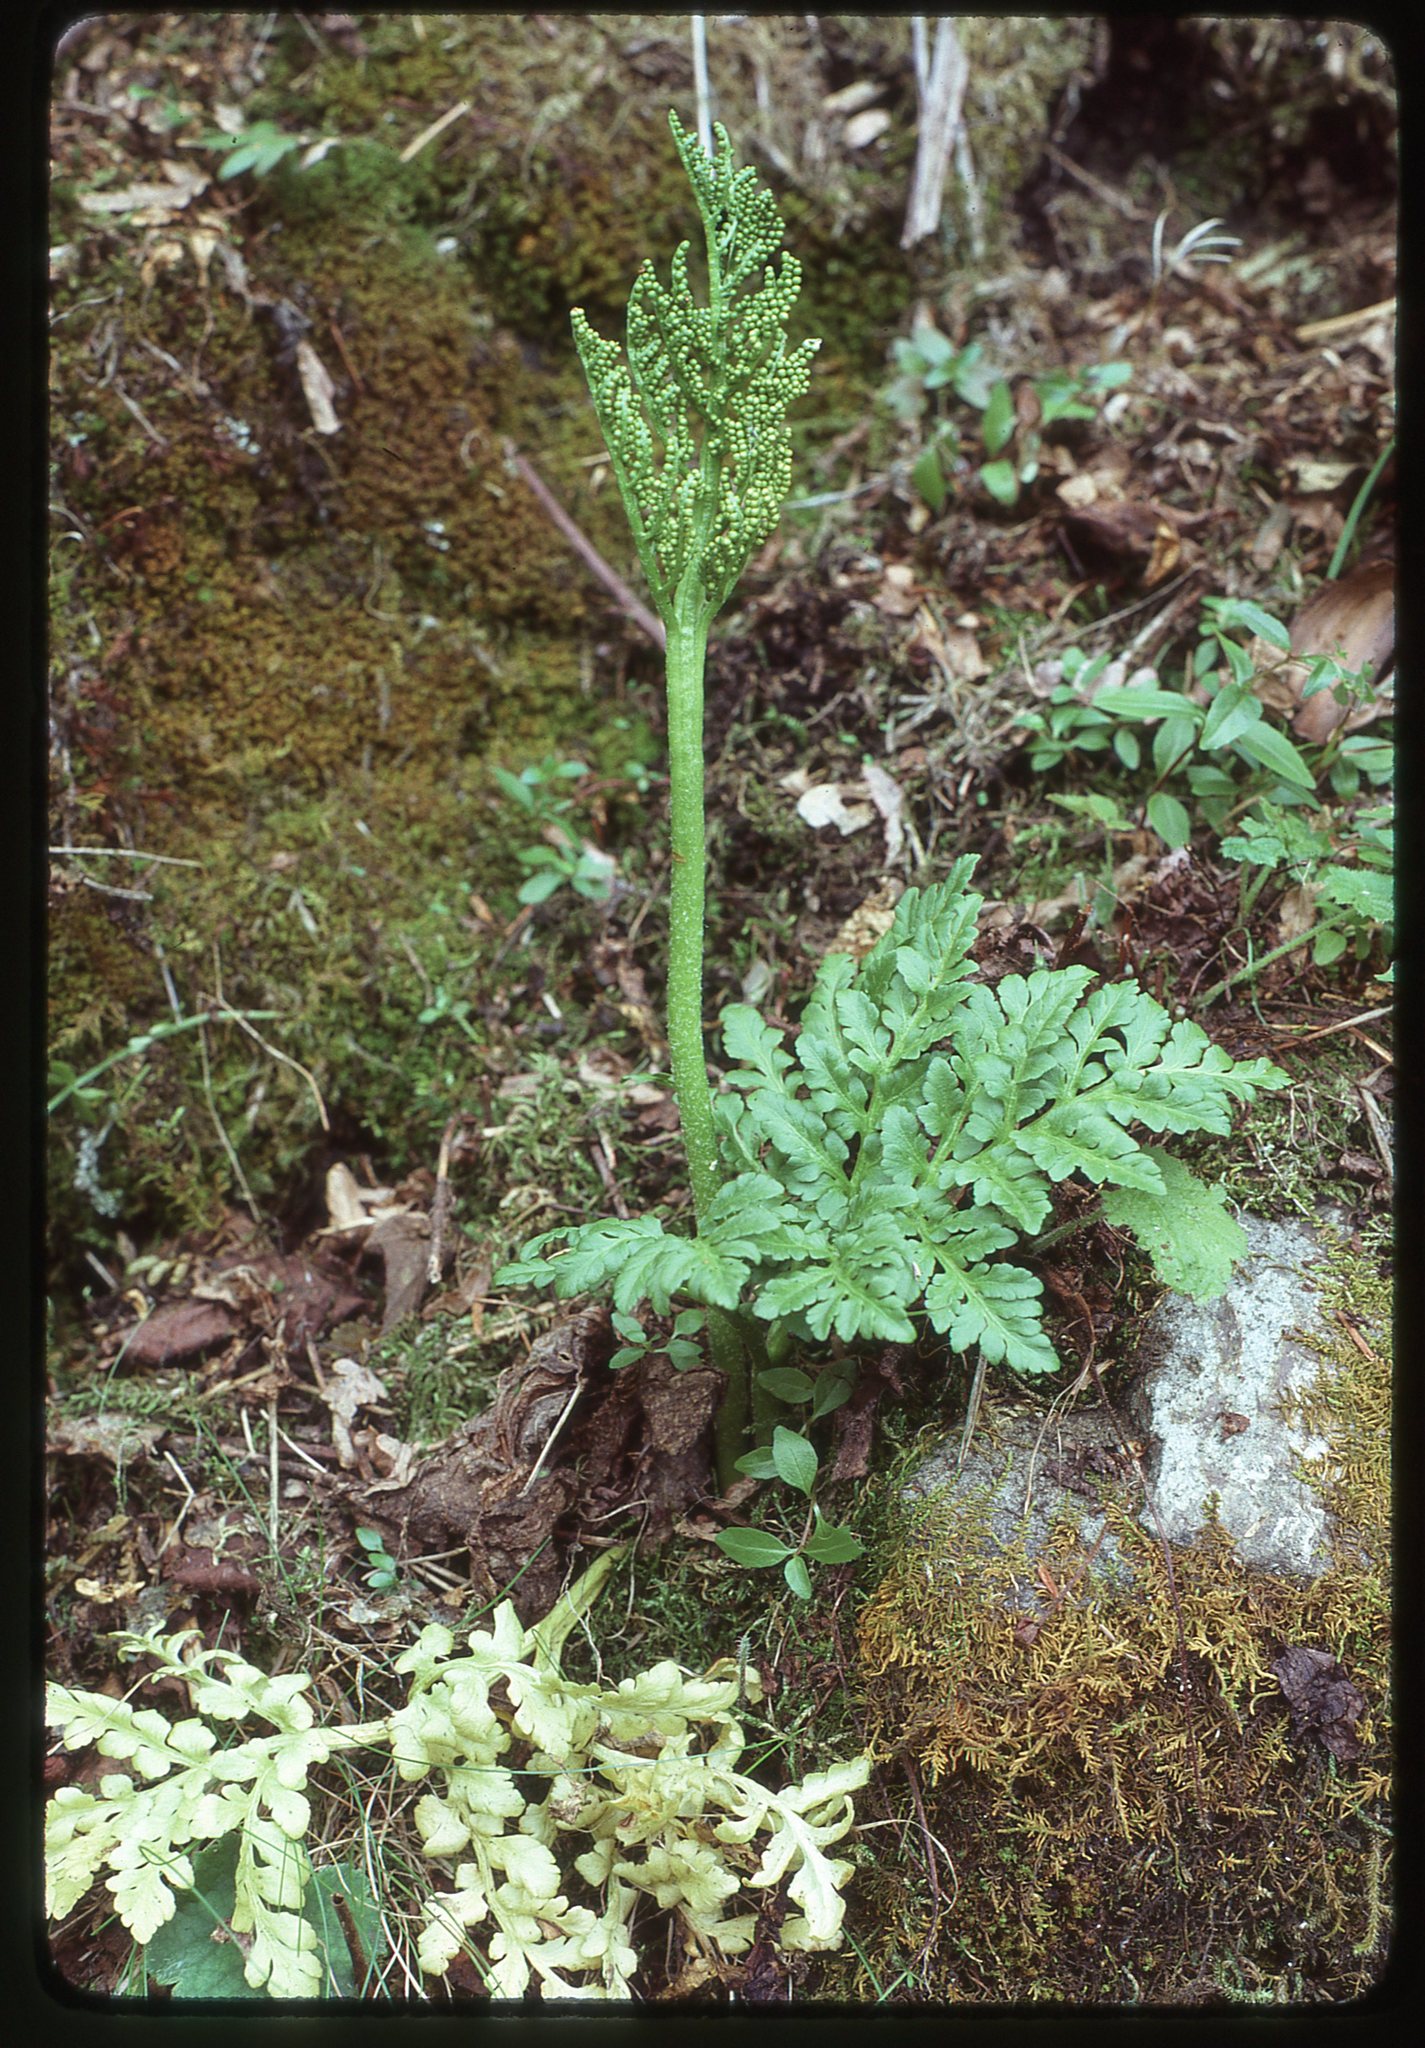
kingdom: Plantae
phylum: Tracheophyta
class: Polypodiopsida
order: Ophioglossales
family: Ophioglossaceae
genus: Sceptridium
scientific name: Sceptridium multifidum
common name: Leathery grape fern
